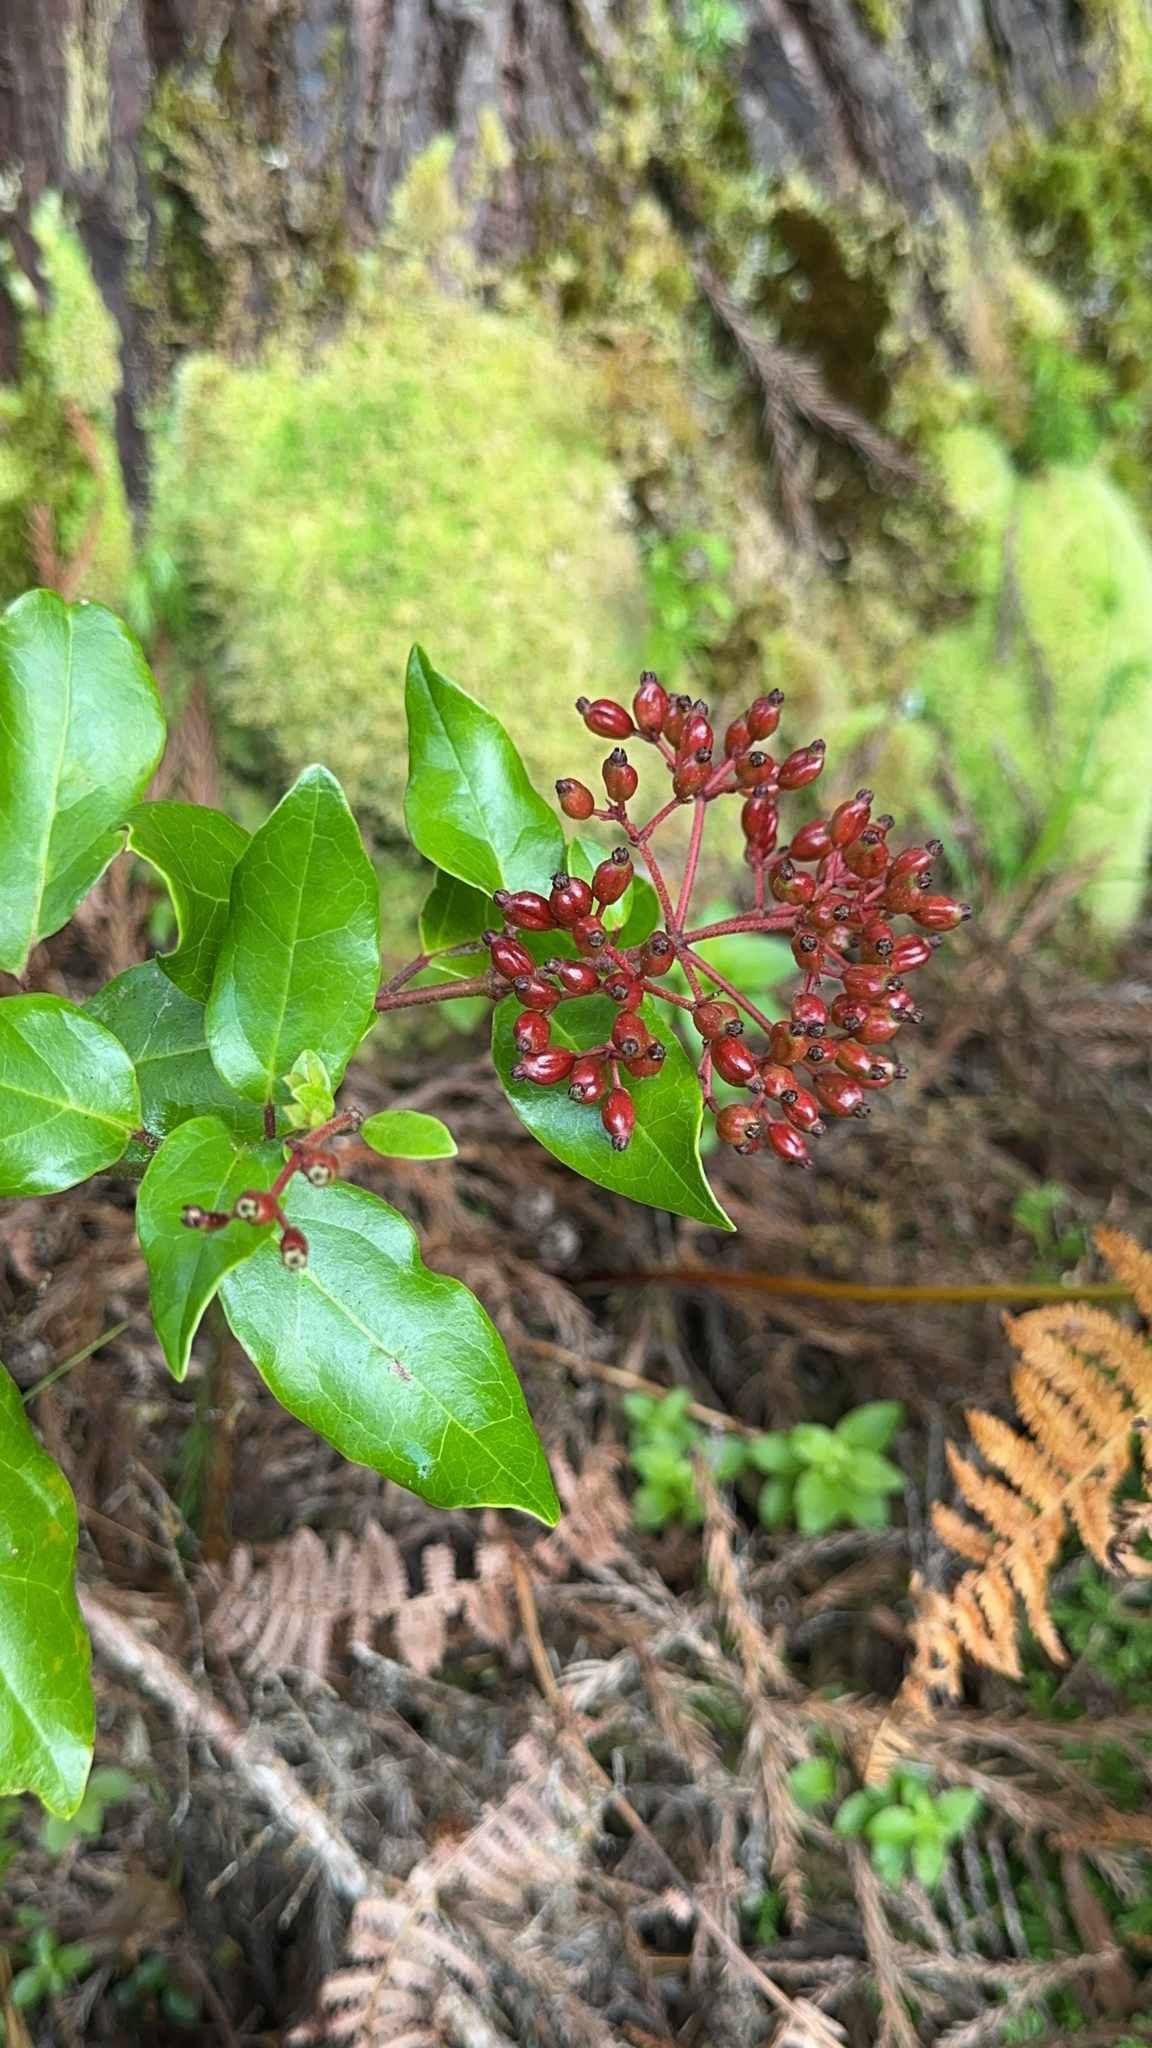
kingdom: Plantae
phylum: Tracheophyta
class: Magnoliopsida
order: Dipsacales
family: Viburnaceae
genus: Viburnum
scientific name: Viburnum treleasei
